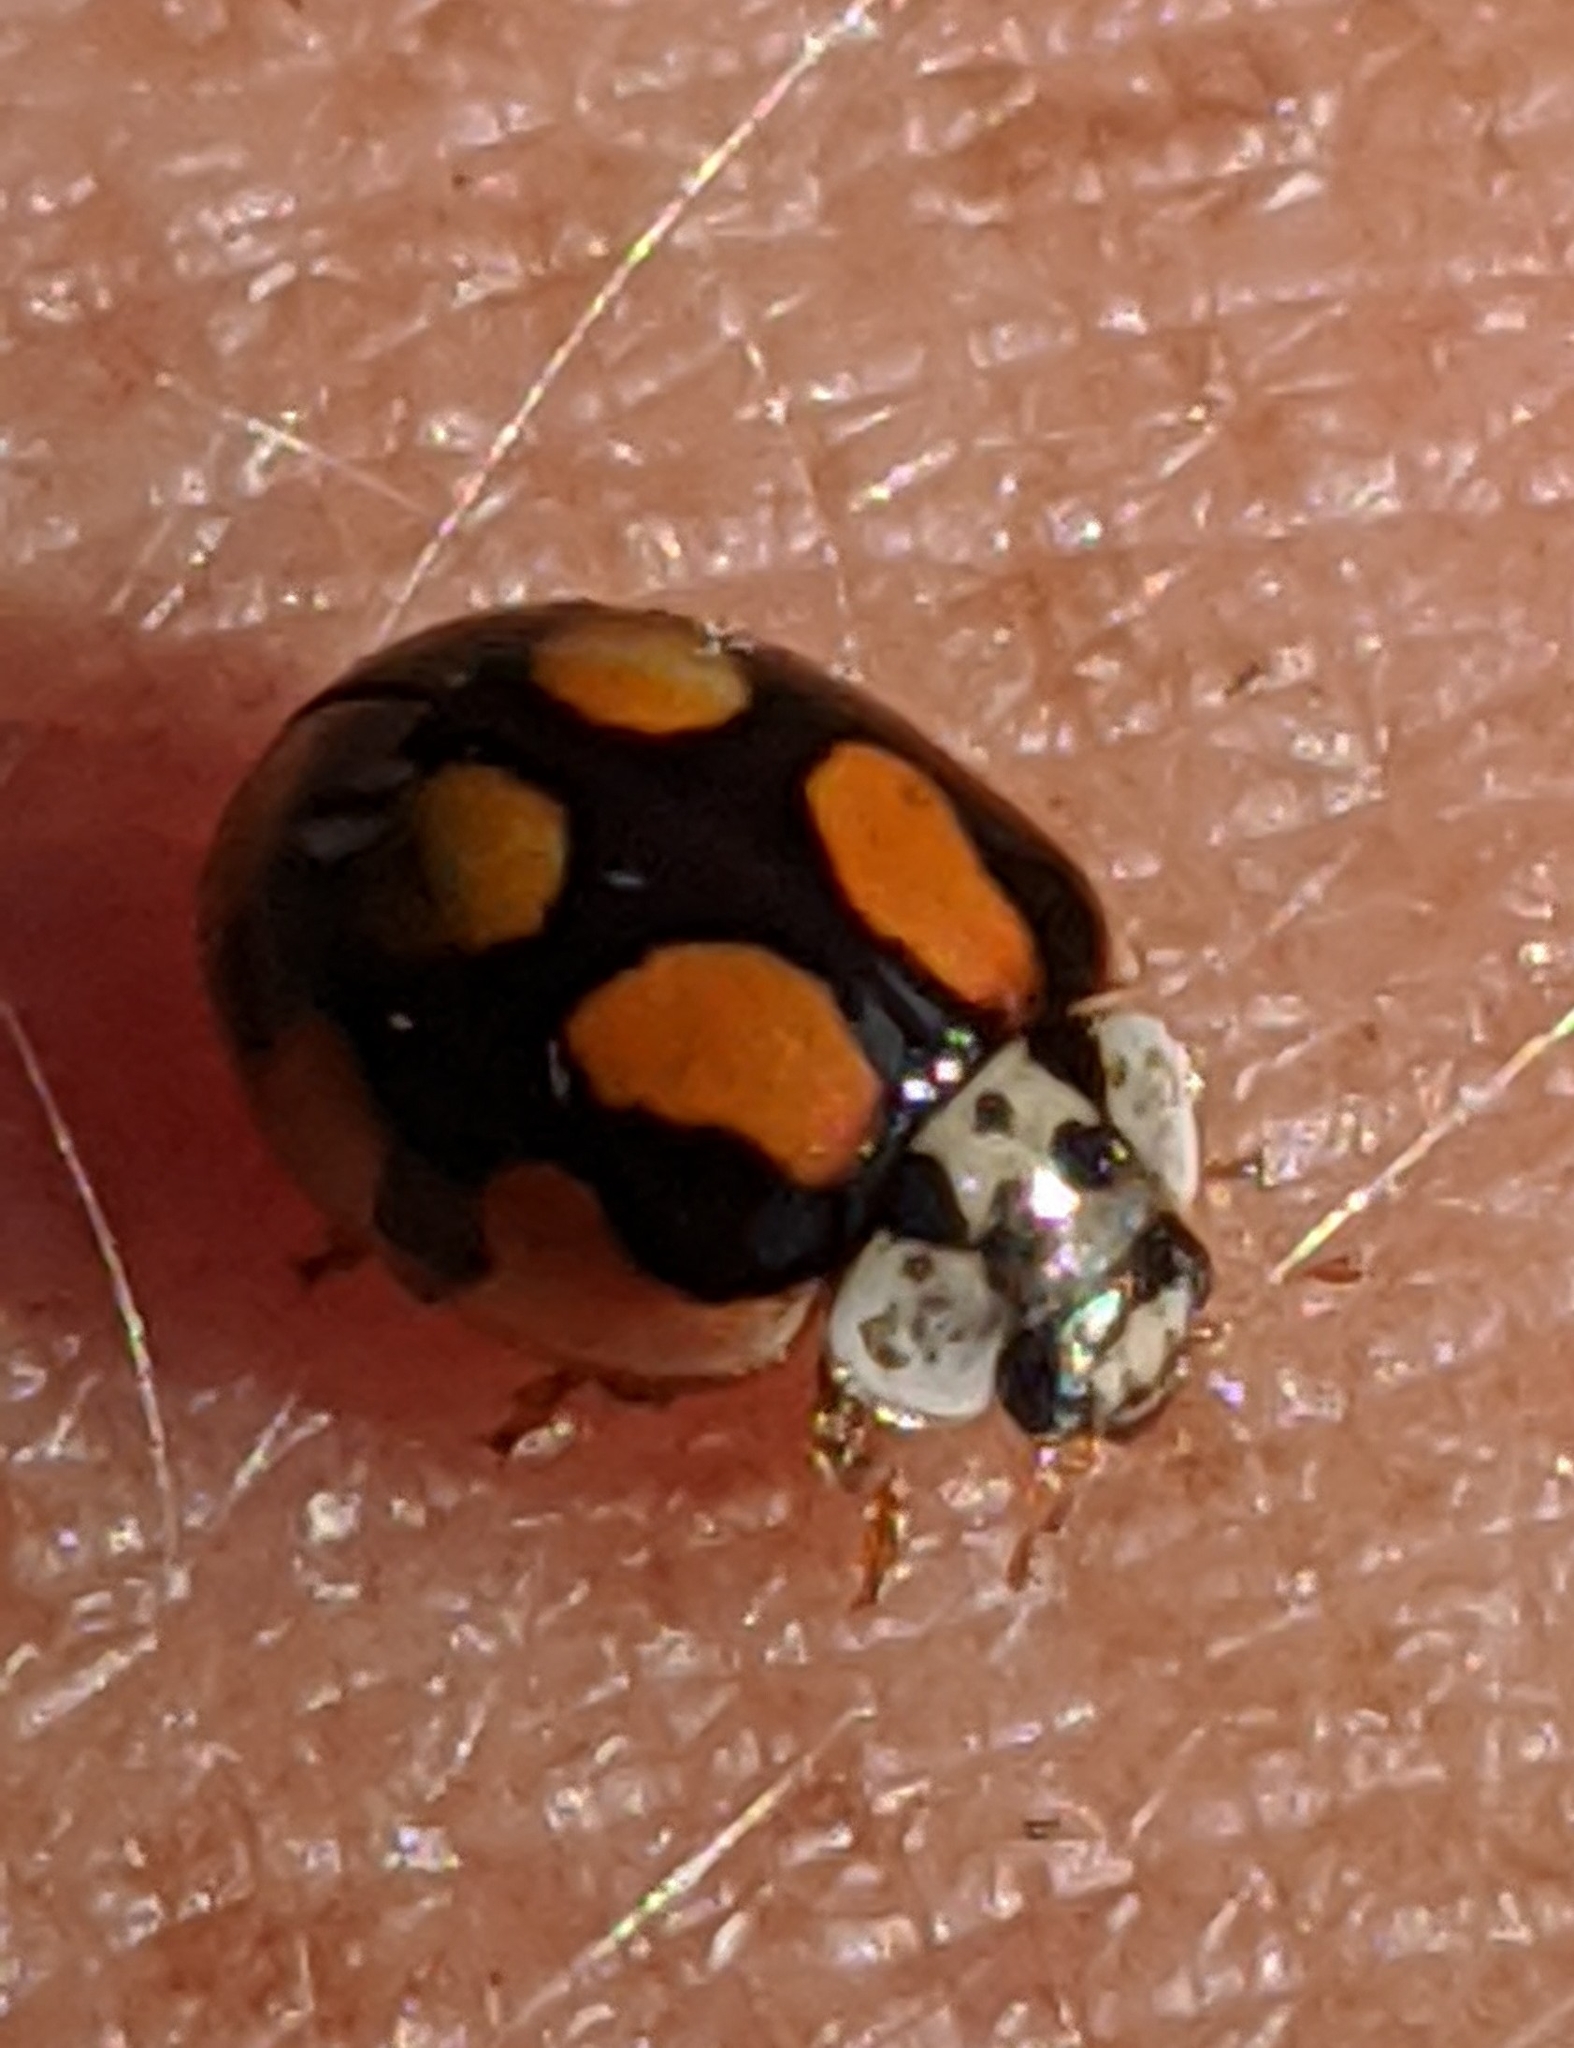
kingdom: Animalia
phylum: Arthropoda
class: Insecta
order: Coleoptera
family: Coccinellidae
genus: Adalia
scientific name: Adalia decempunctata
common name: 10-spot ladybird
